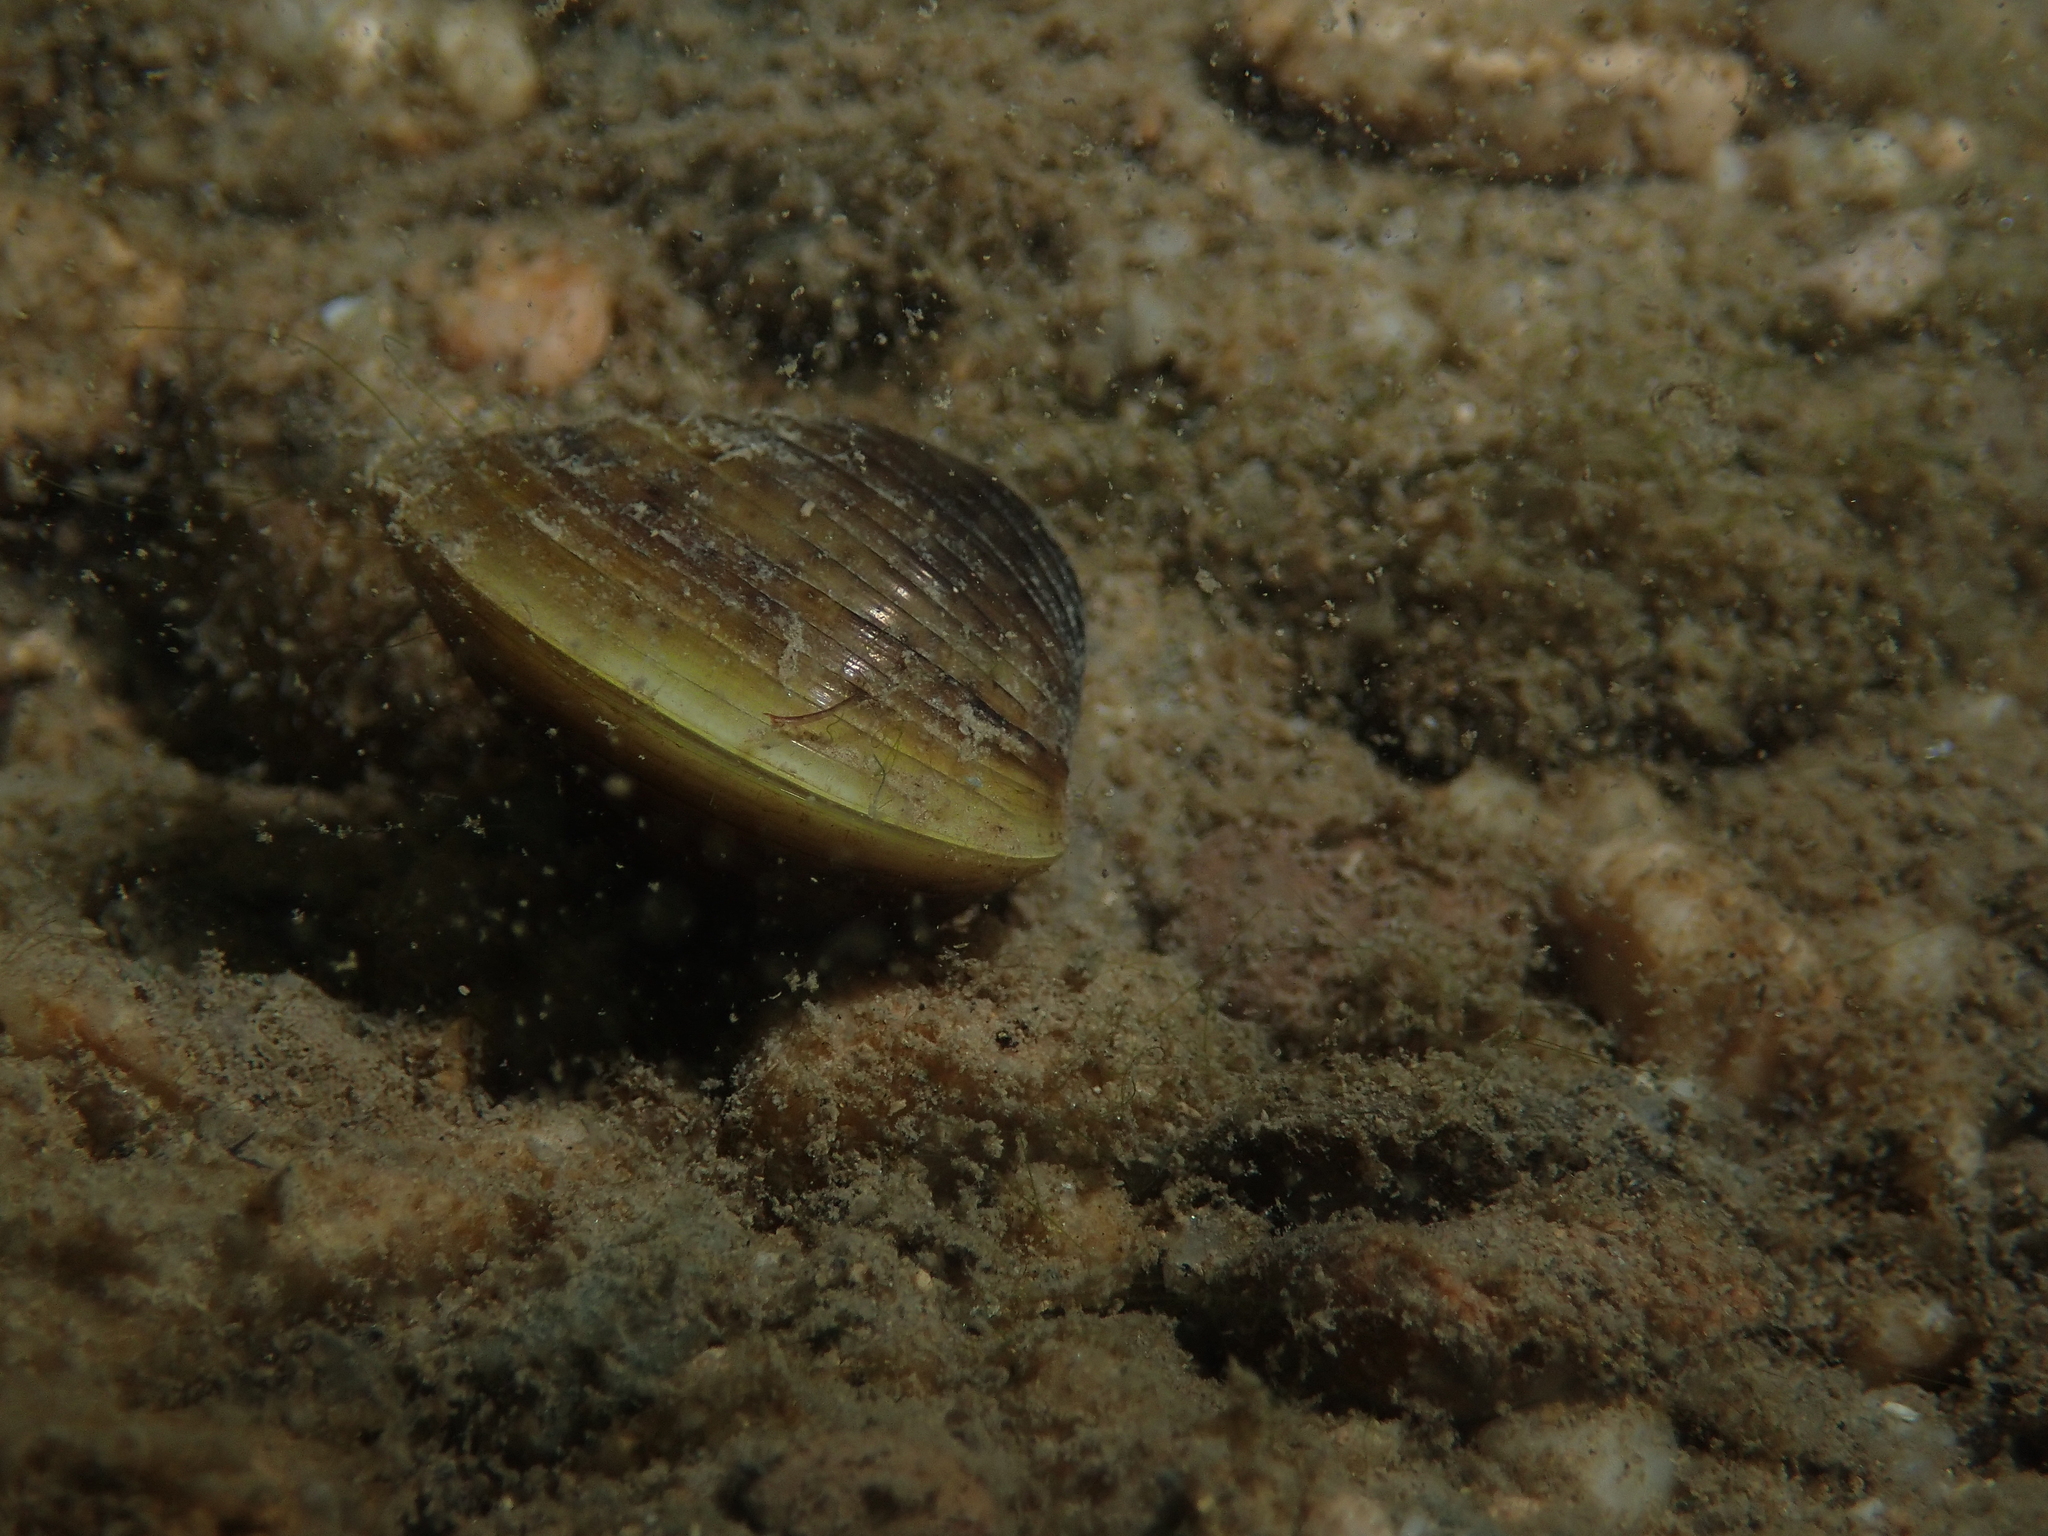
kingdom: Animalia
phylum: Mollusca
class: Bivalvia
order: Venerida
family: Cyrenidae
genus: Corbicula
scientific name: Corbicula fluminea
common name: Asian clam
